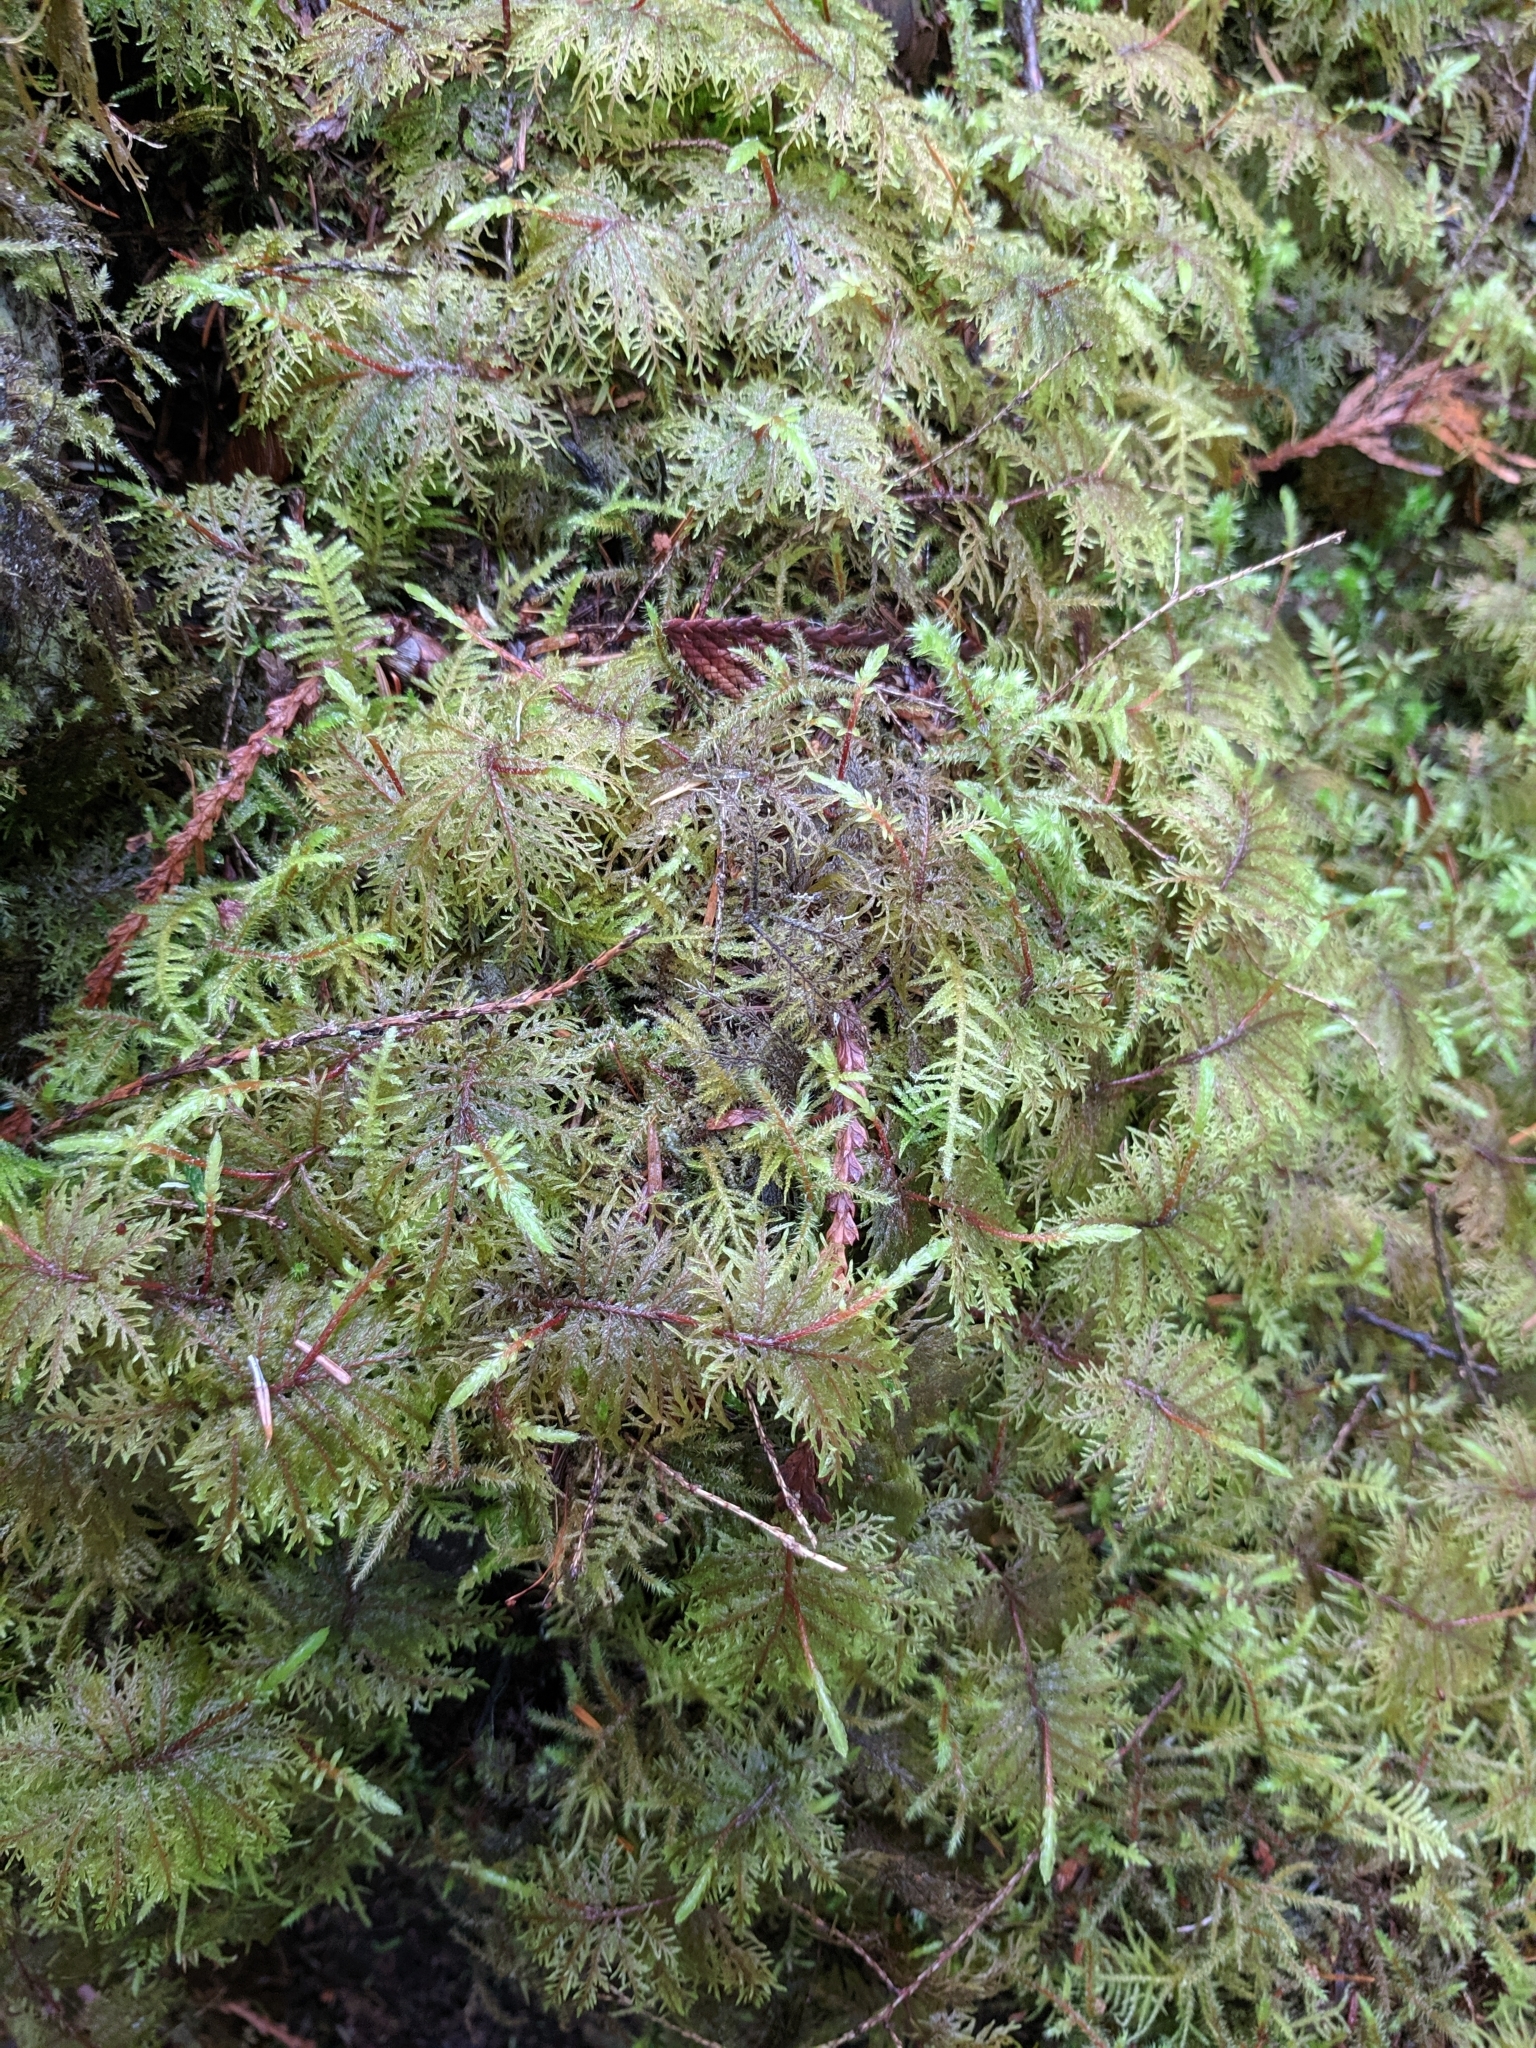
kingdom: Plantae
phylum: Bryophyta
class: Bryopsida
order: Hypnales
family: Hylocomiaceae
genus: Hylocomium
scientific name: Hylocomium splendens
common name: Stairstep moss
